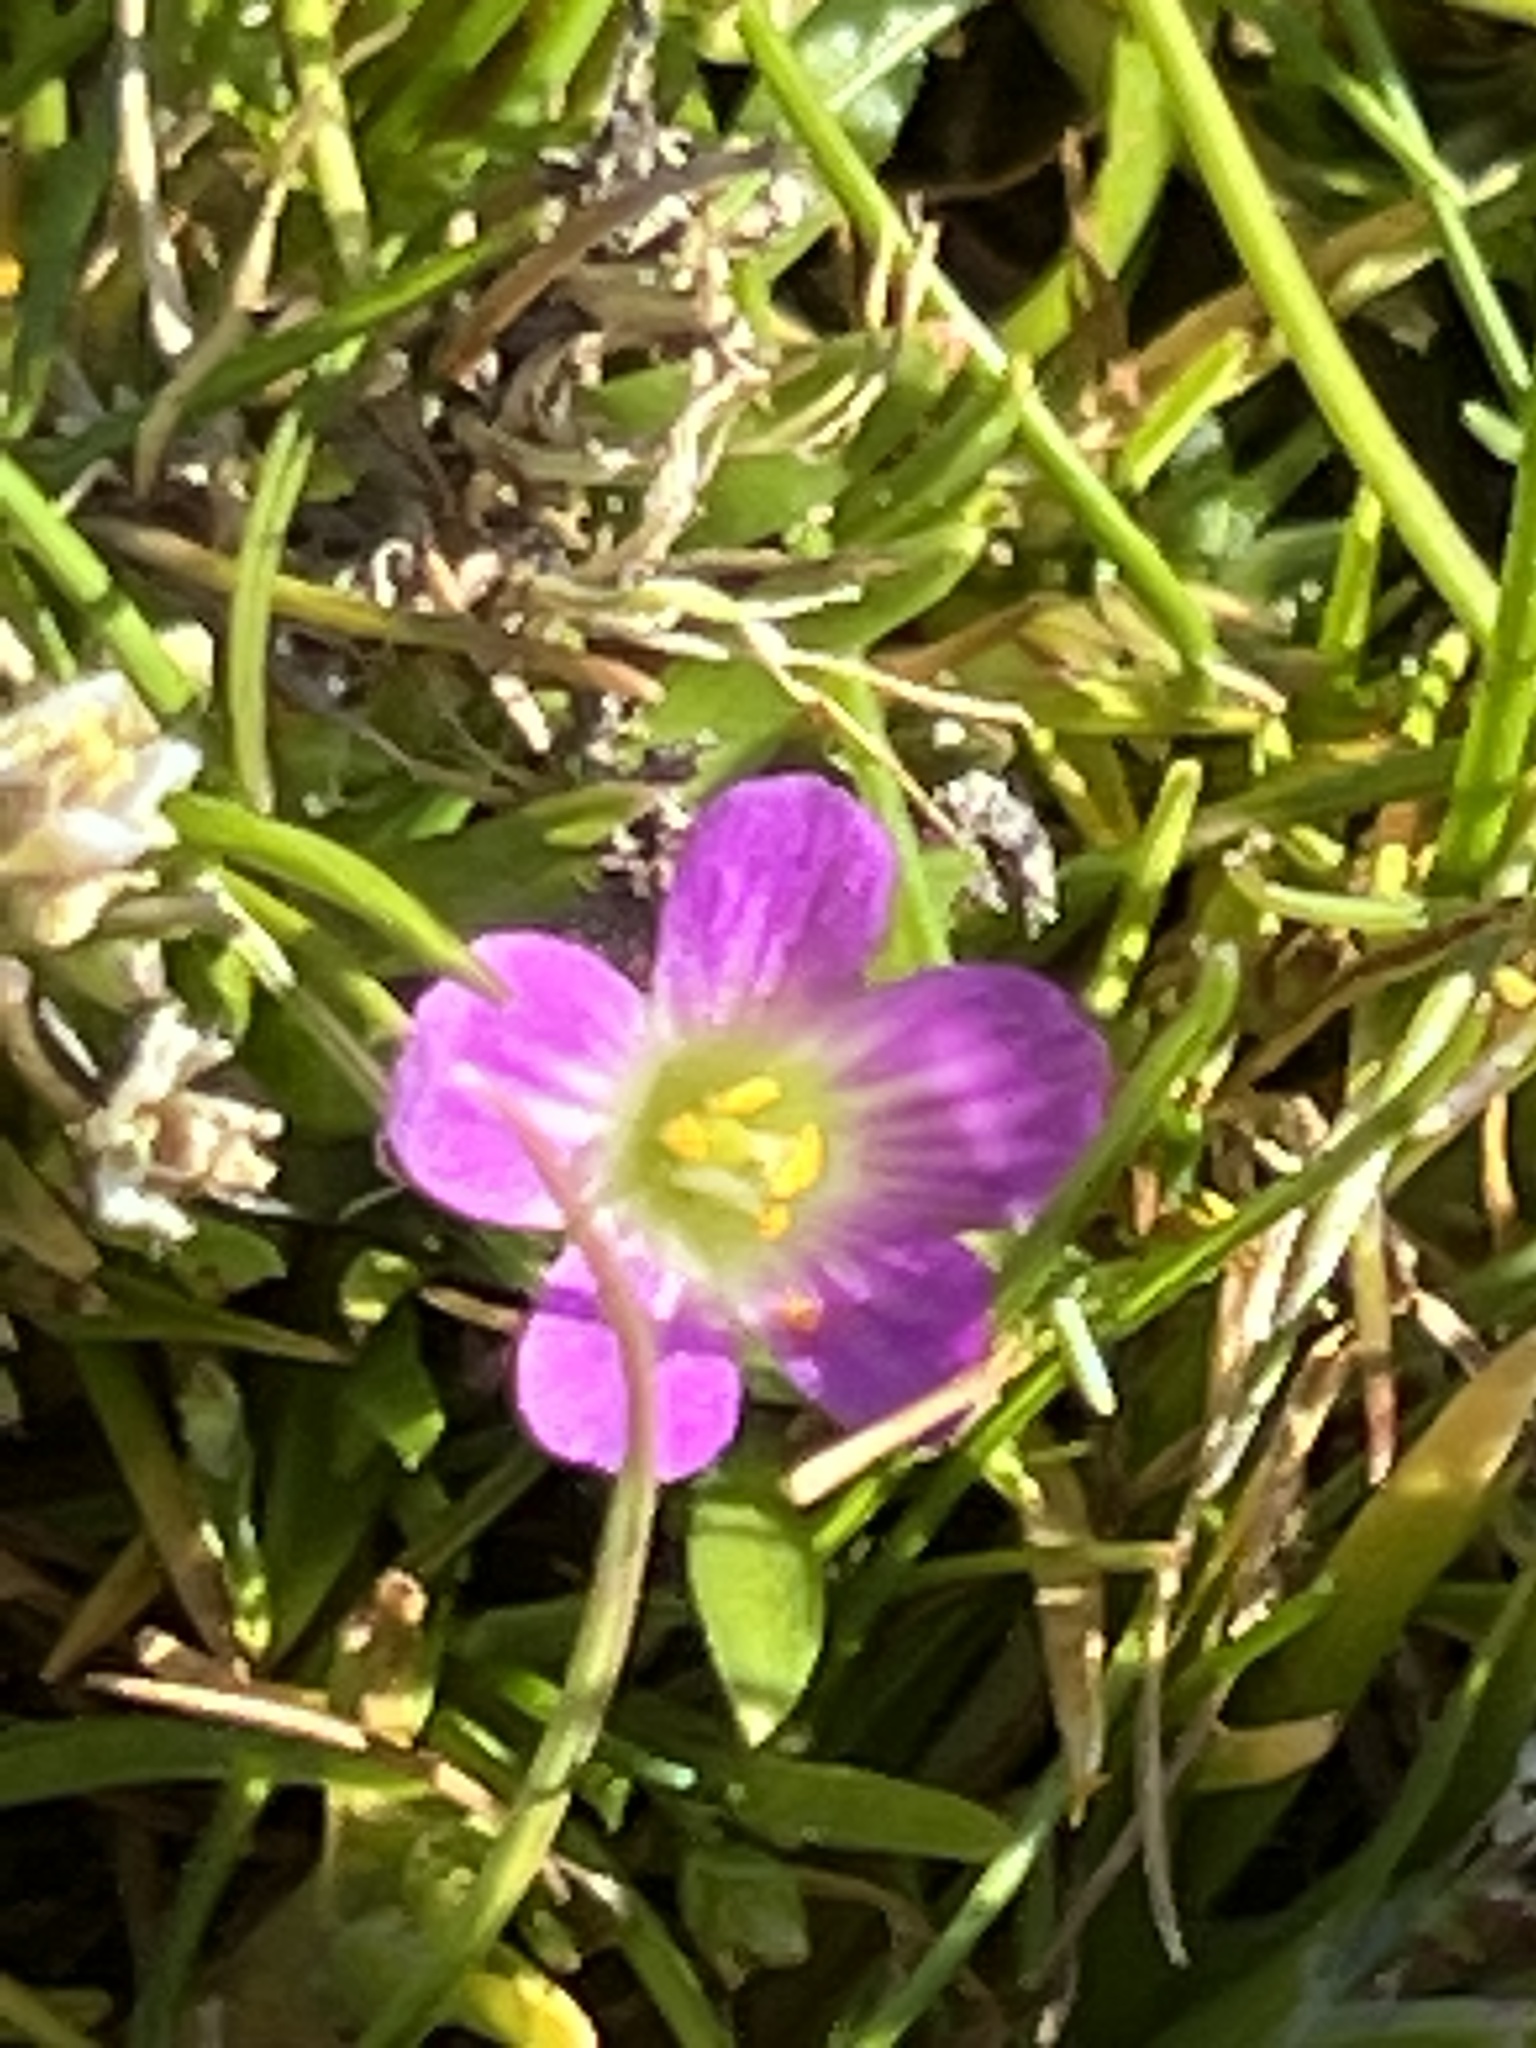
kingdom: Plantae
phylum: Tracheophyta
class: Magnoliopsida
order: Caryophyllales
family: Montiaceae
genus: Calandrinia
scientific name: Calandrinia menziesii
